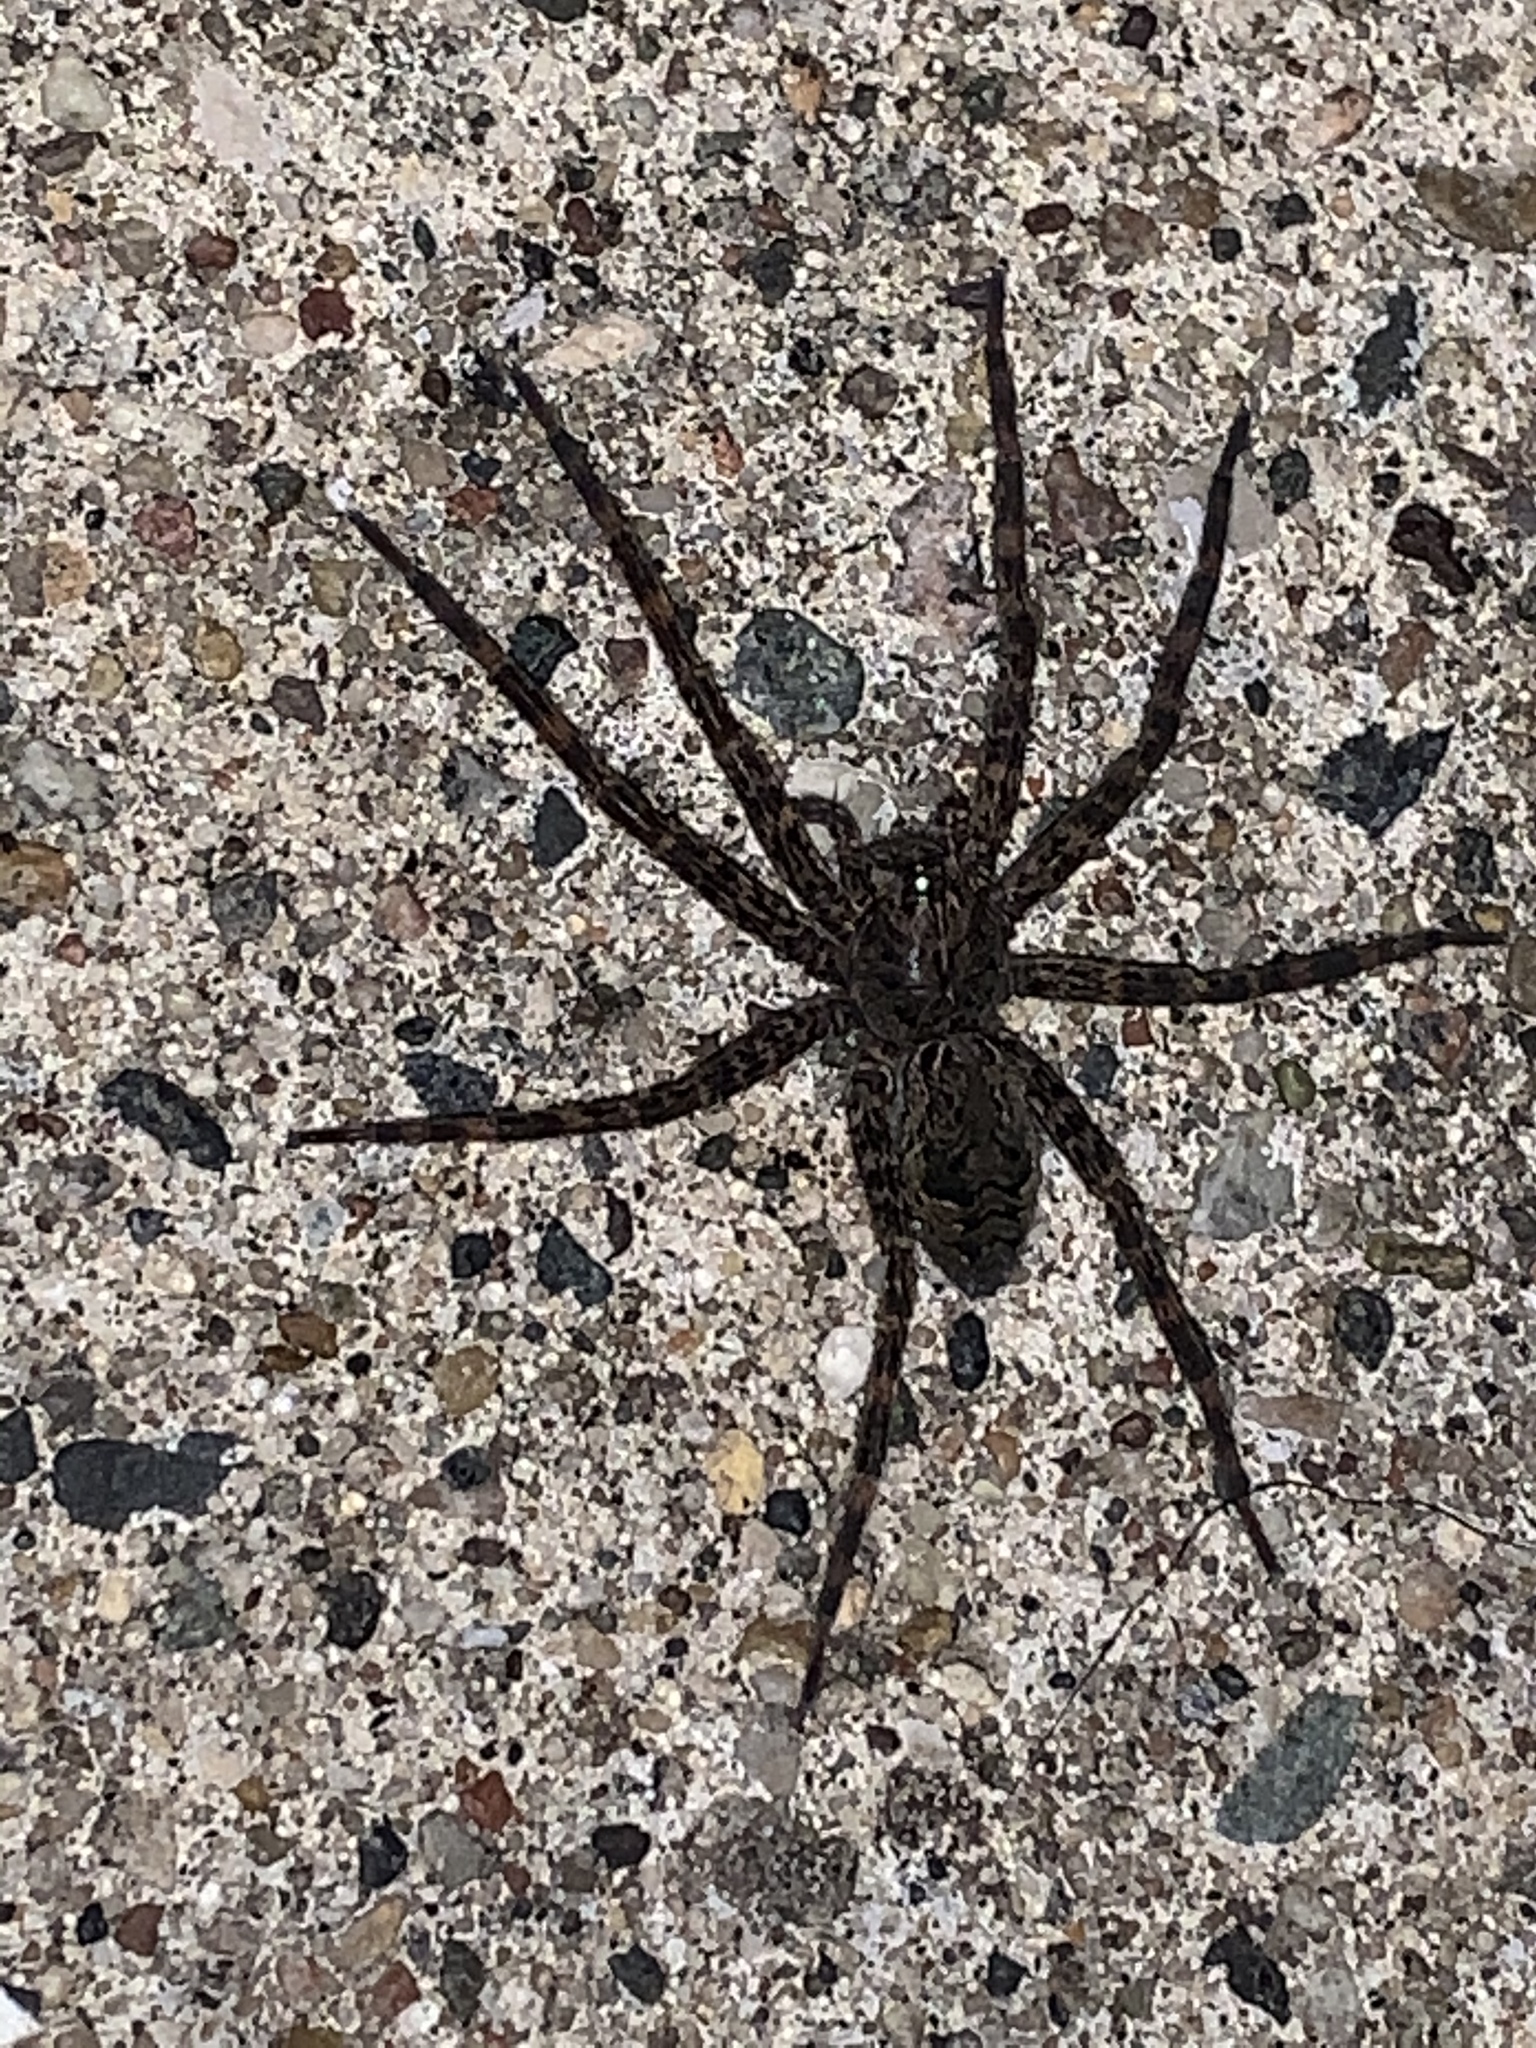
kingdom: Animalia
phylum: Arthropoda
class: Arachnida
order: Araneae
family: Pisauridae
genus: Dolomedes
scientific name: Dolomedes tenebrosus
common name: Dark fishing spider
